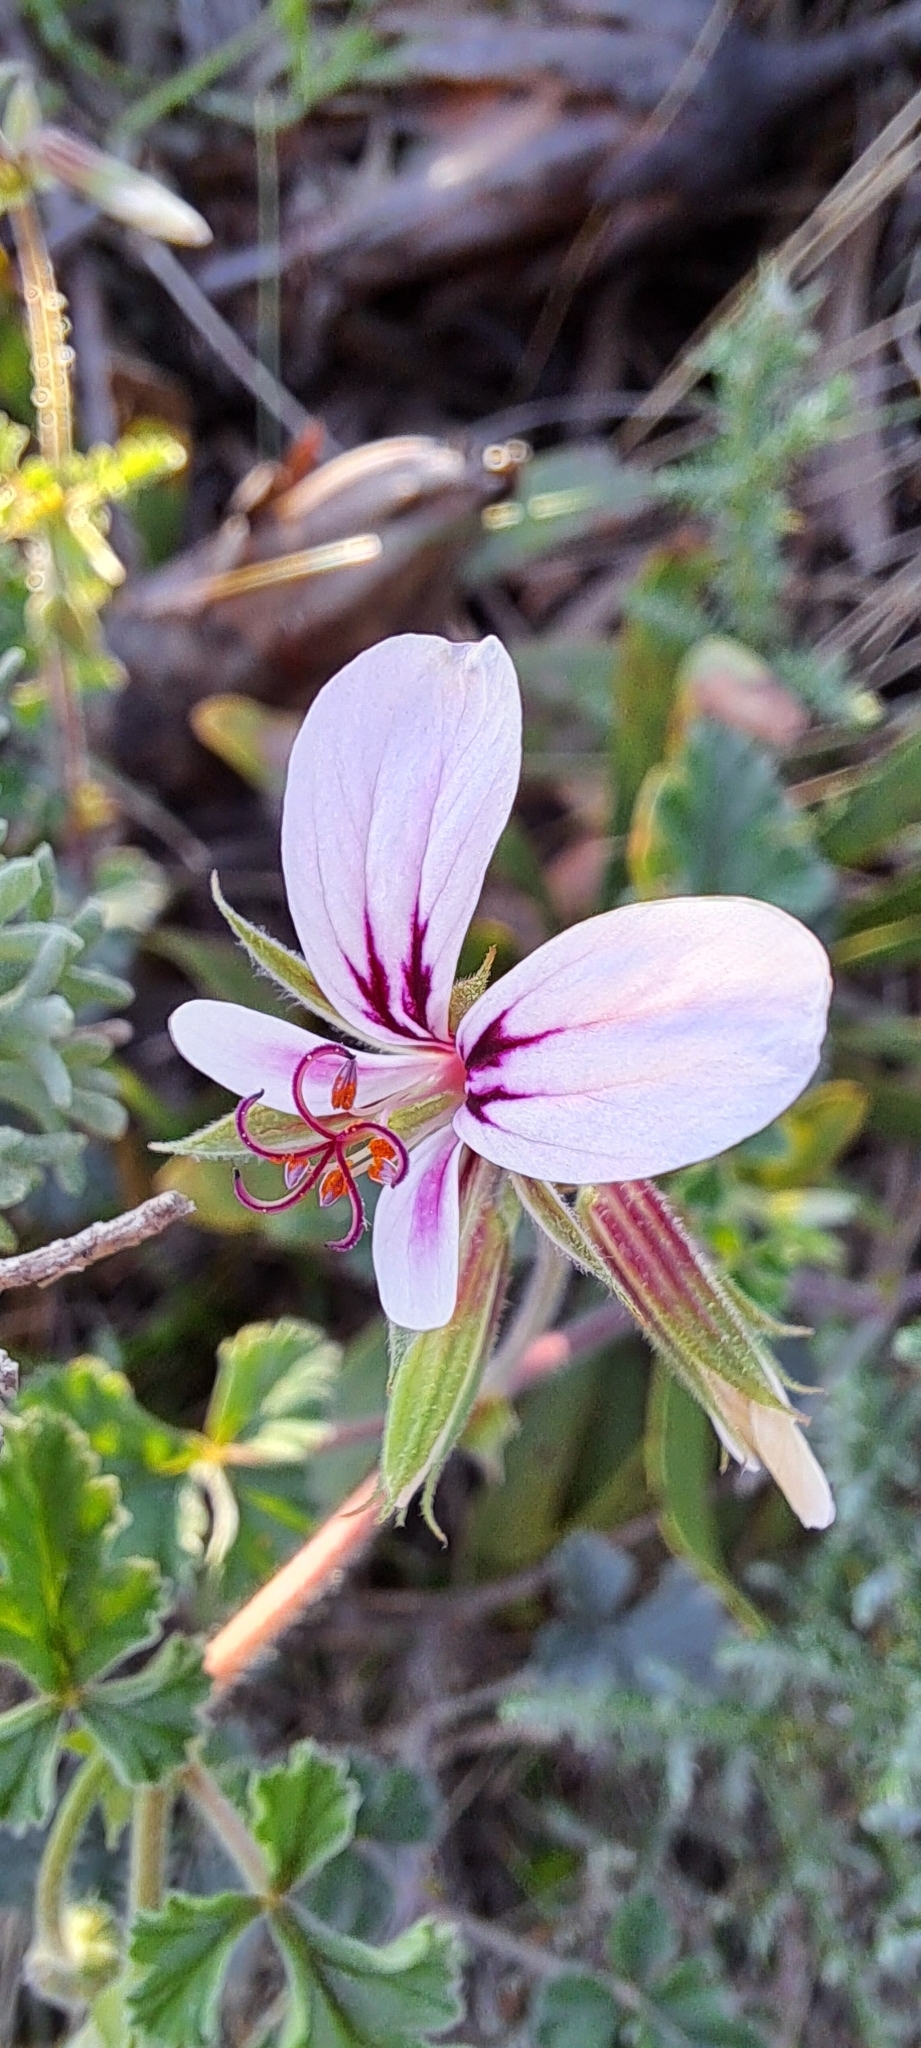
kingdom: Plantae
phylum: Tracheophyta
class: Magnoliopsida
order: Geraniales
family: Geraniaceae
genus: Pelargonium
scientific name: Pelargonium candicans
